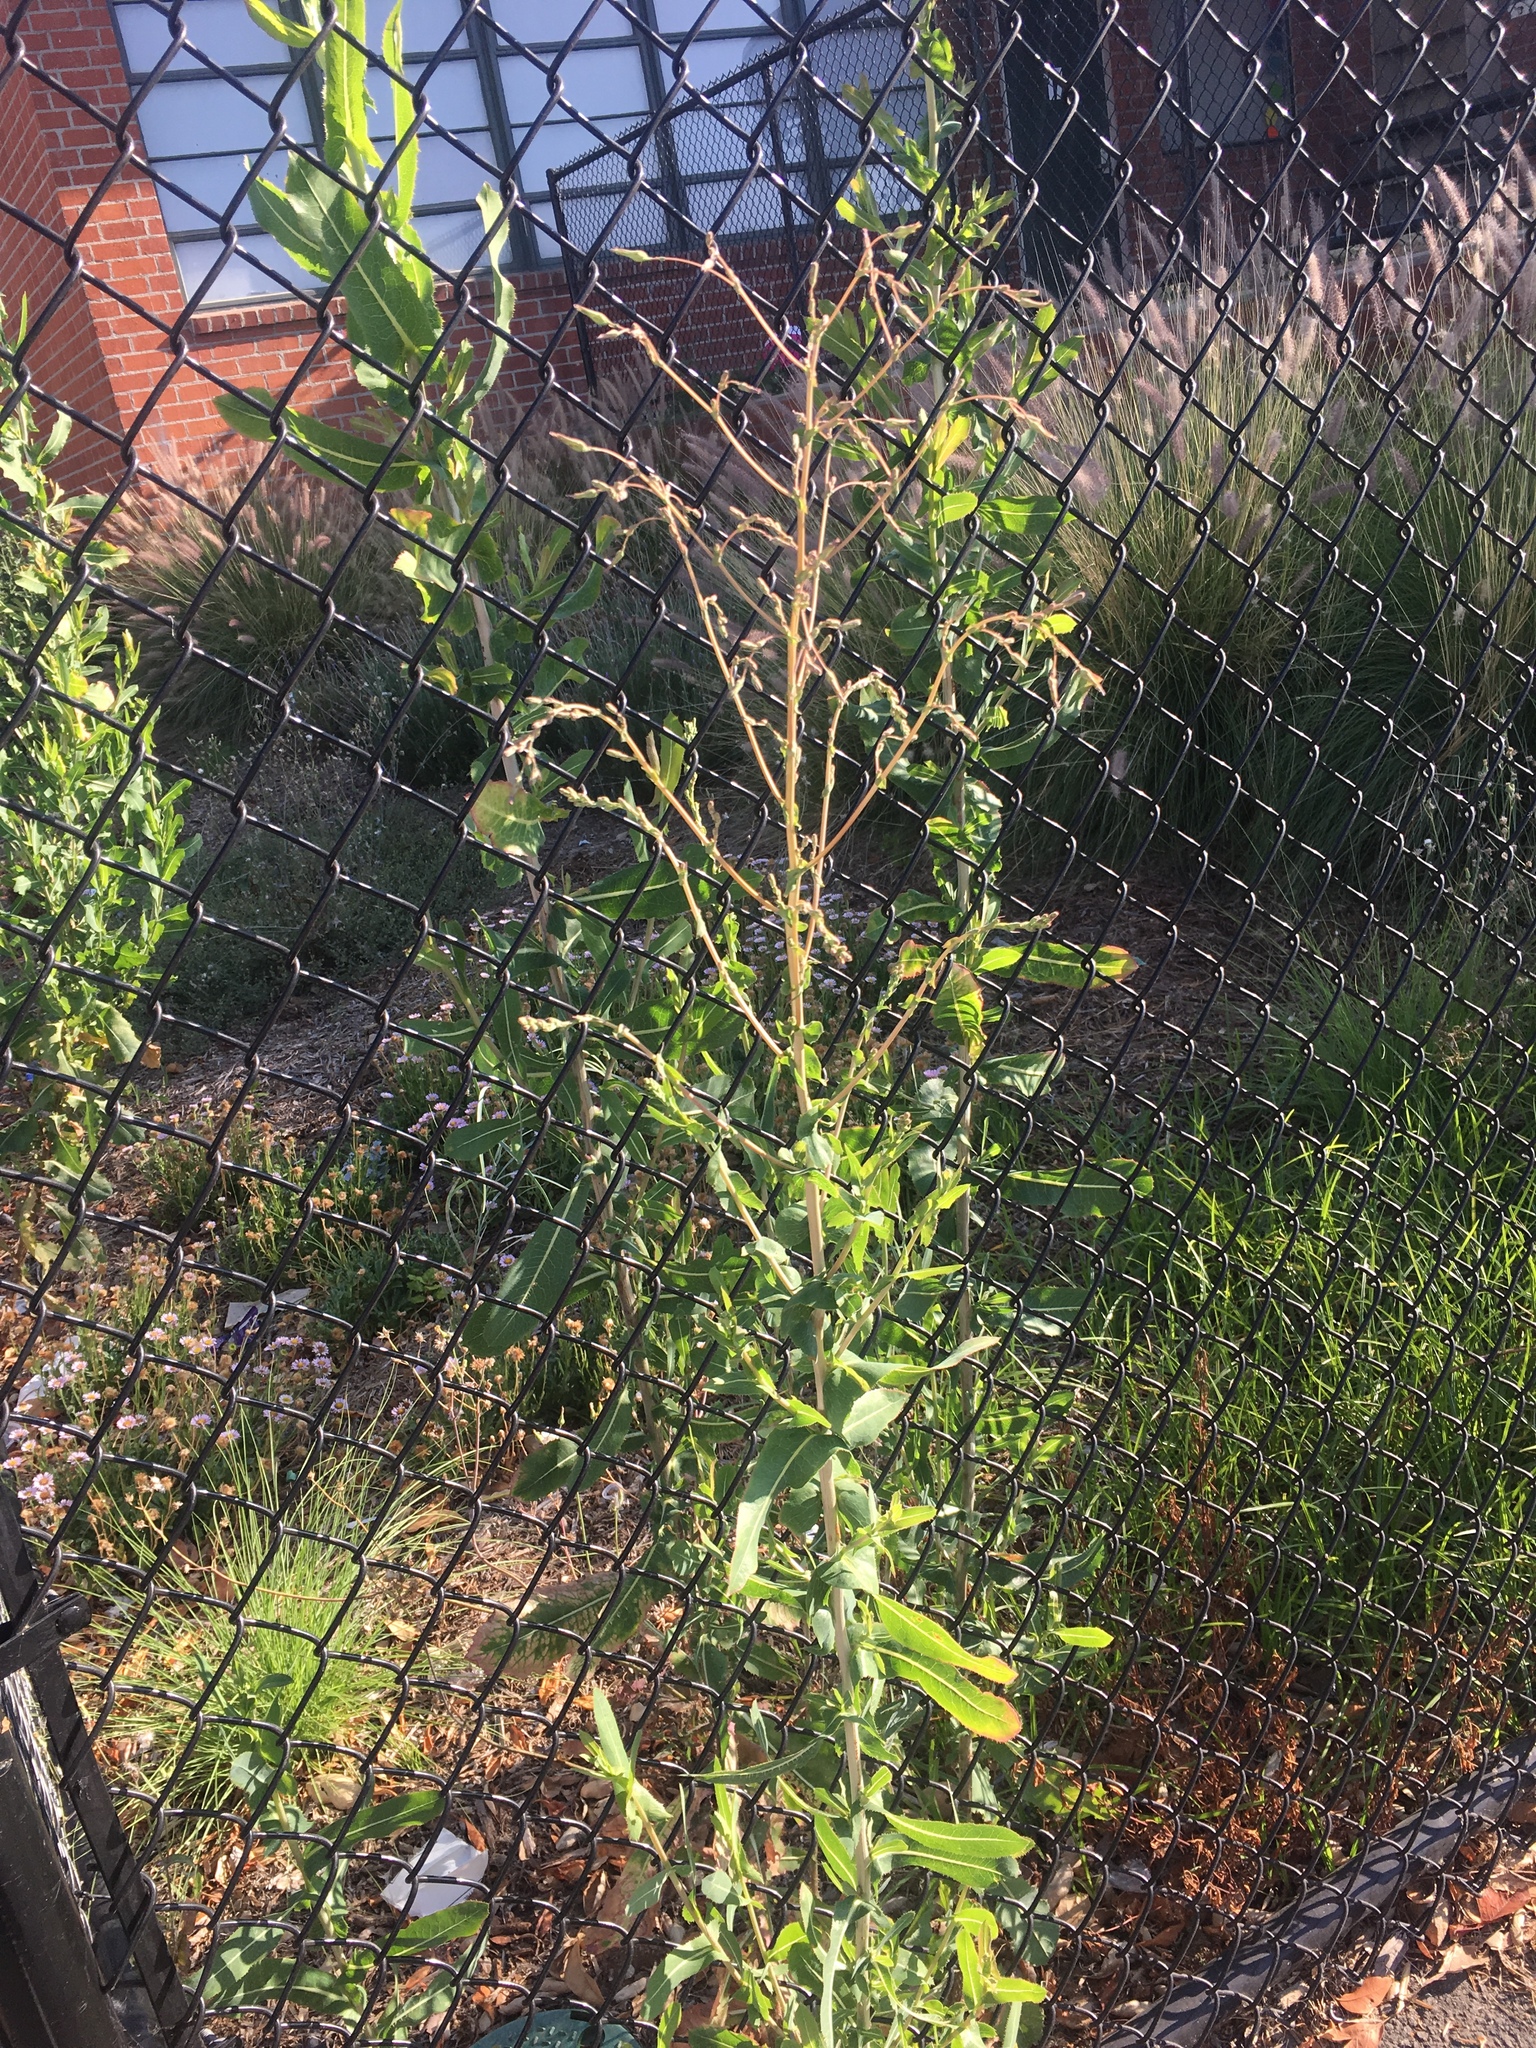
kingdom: Plantae
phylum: Tracheophyta
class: Magnoliopsida
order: Asterales
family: Asteraceae
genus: Lactuca
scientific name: Lactuca serriola
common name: Prickly lettuce
